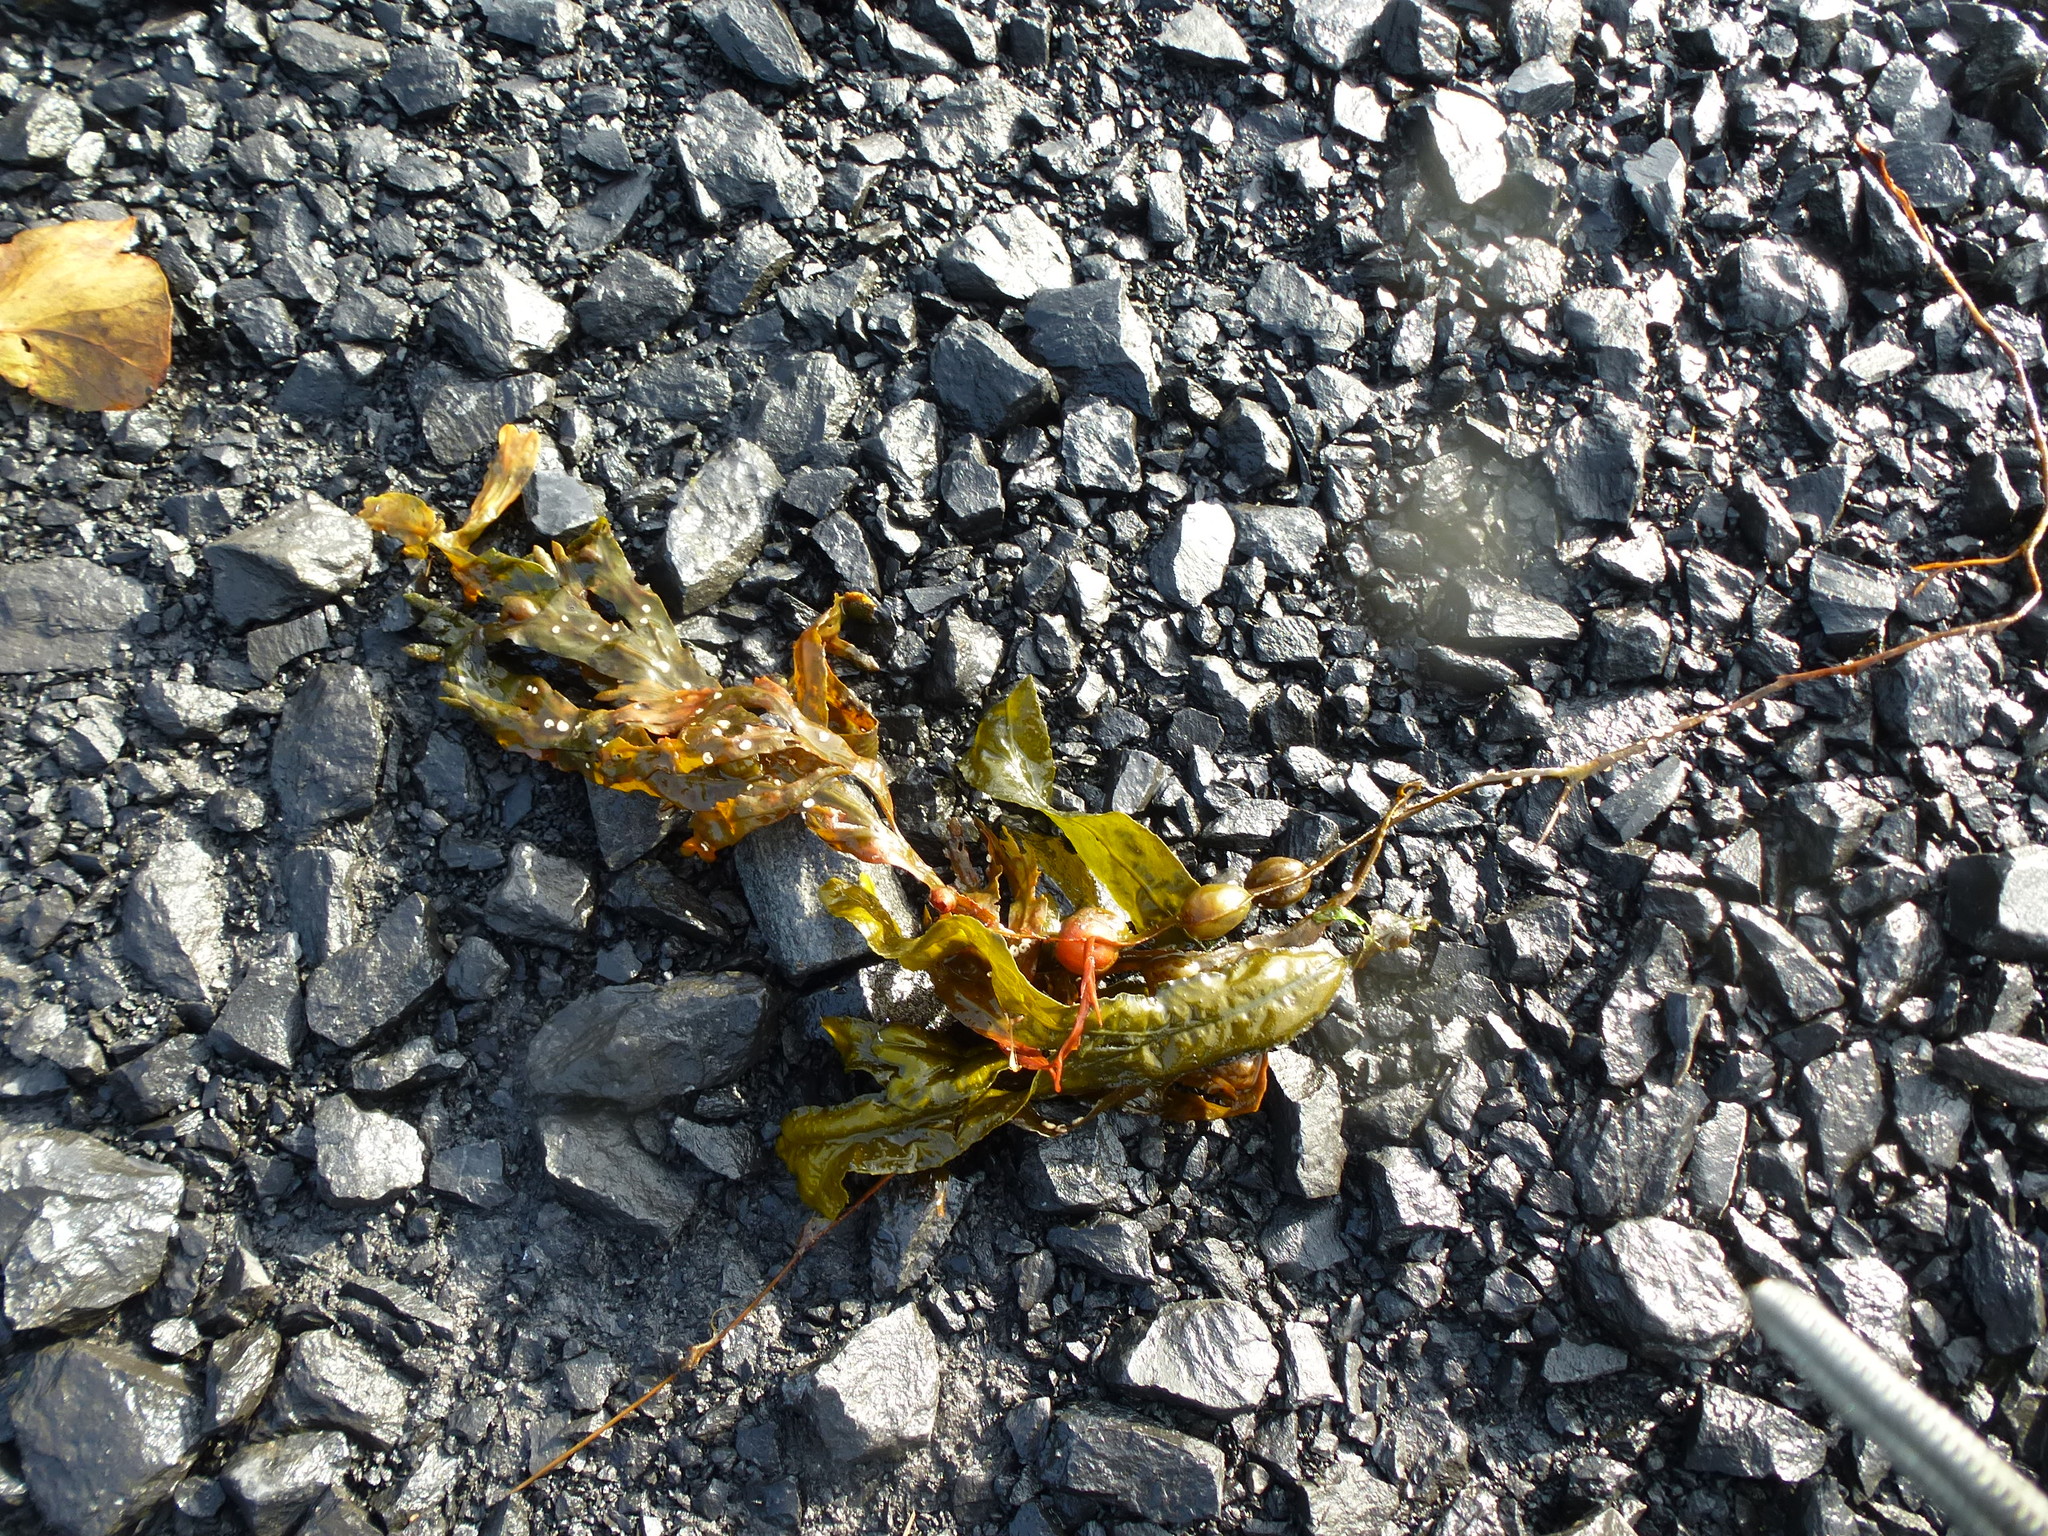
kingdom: Chromista
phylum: Ochrophyta
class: Phaeophyceae
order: Fucales
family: Fucaceae
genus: Fucus
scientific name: Fucus vesiculosus
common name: Bladder wrack
